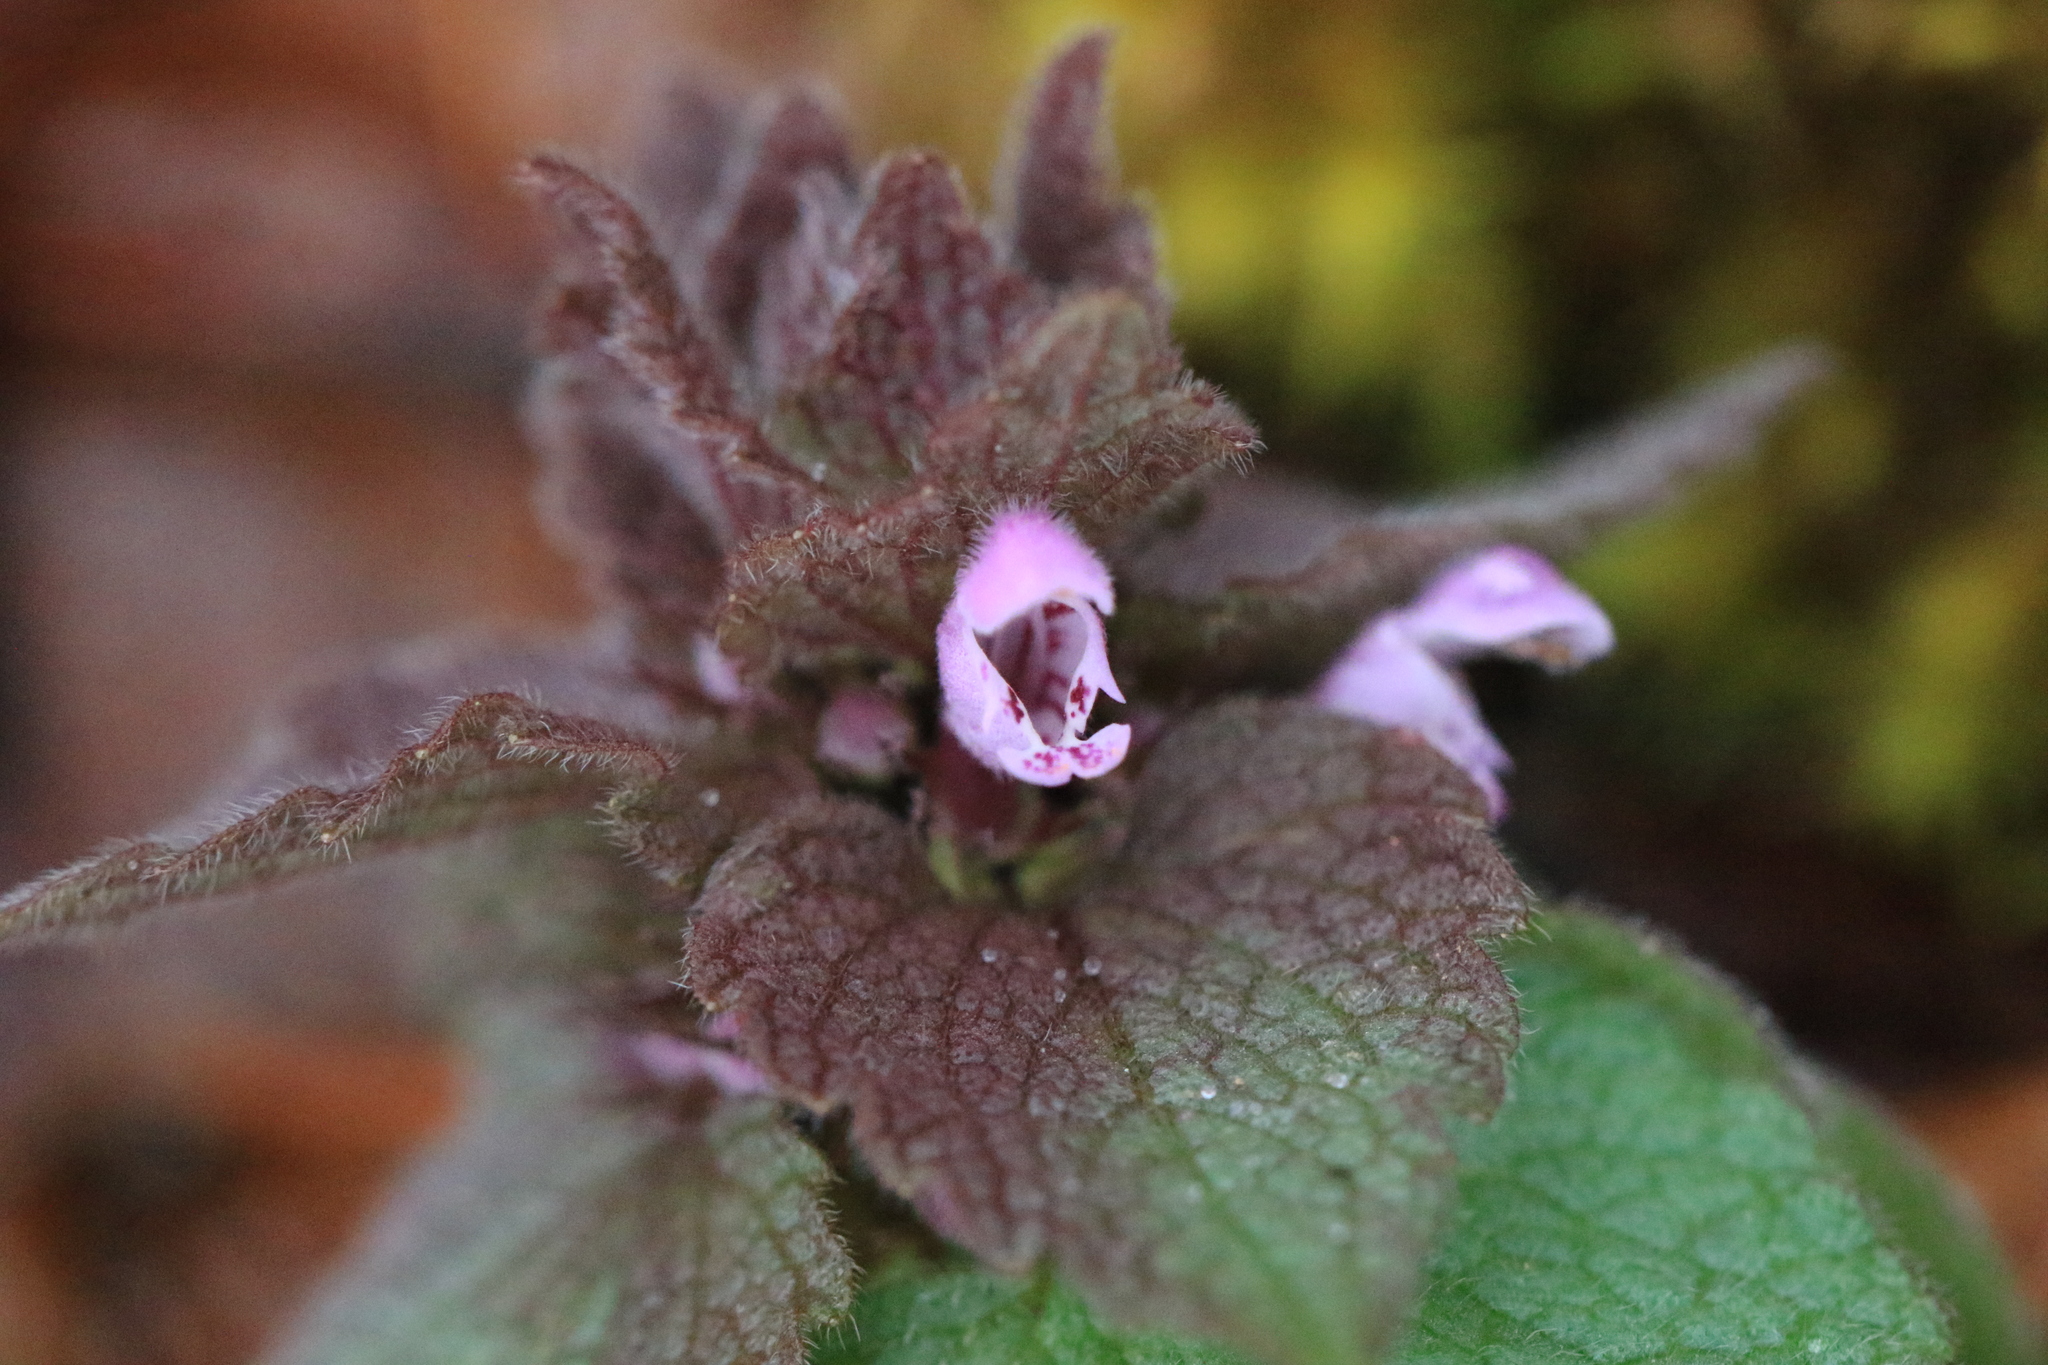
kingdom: Plantae
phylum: Tracheophyta
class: Magnoliopsida
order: Lamiales
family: Lamiaceae
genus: Lamium
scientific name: Lamium purpureum
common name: Red dead-nettle
